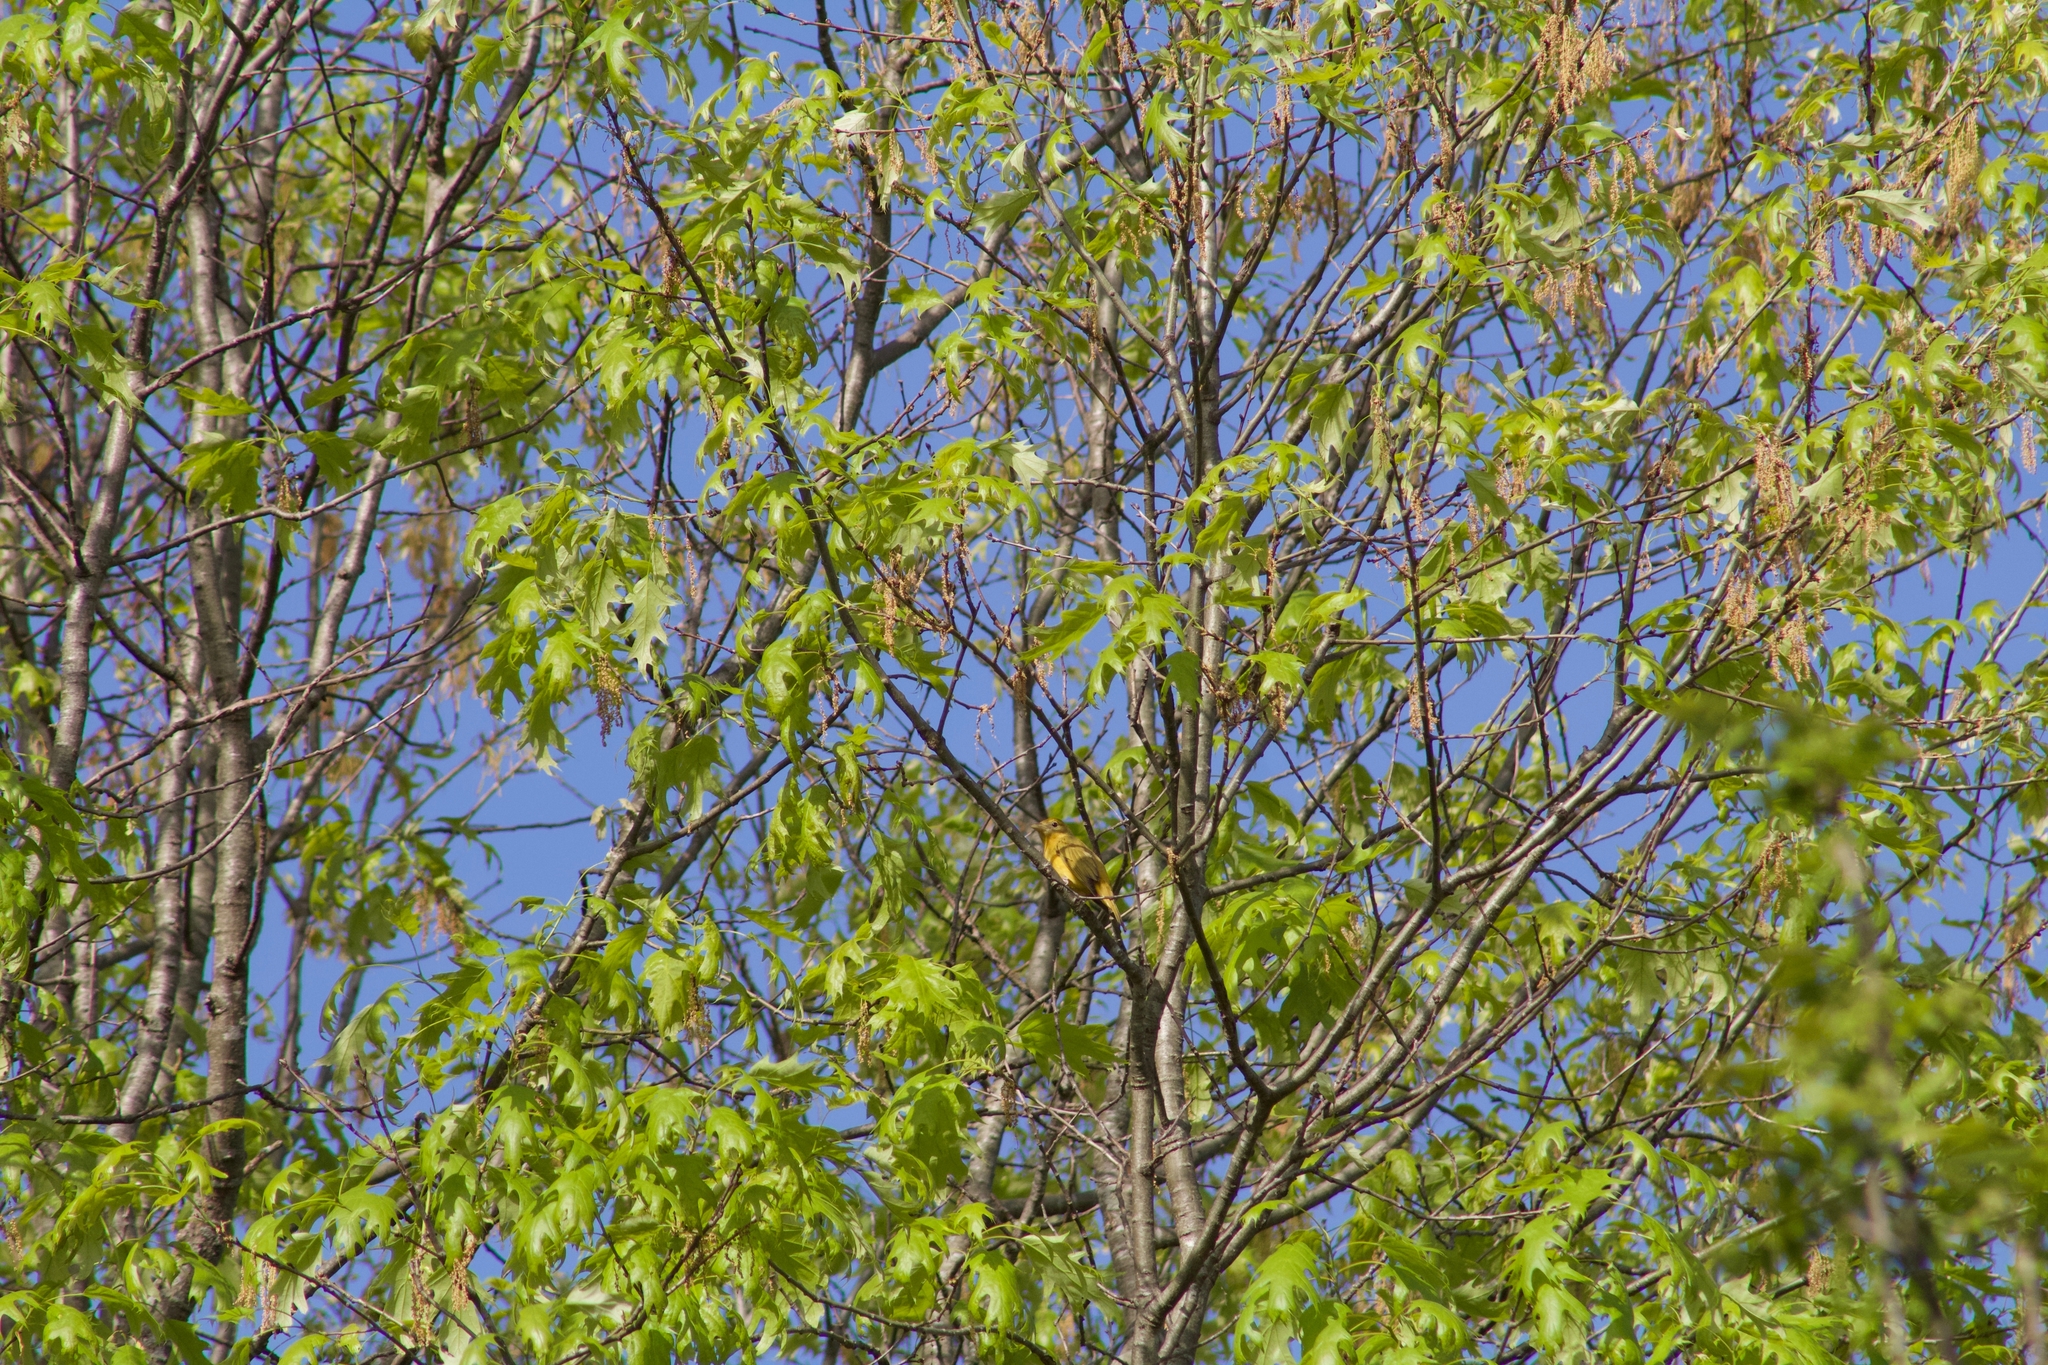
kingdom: Animalia
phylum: Chordata
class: Aves
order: Passeriformes
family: Cardinalidae
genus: Piranga
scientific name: Piranga rubra
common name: Summer tanager
